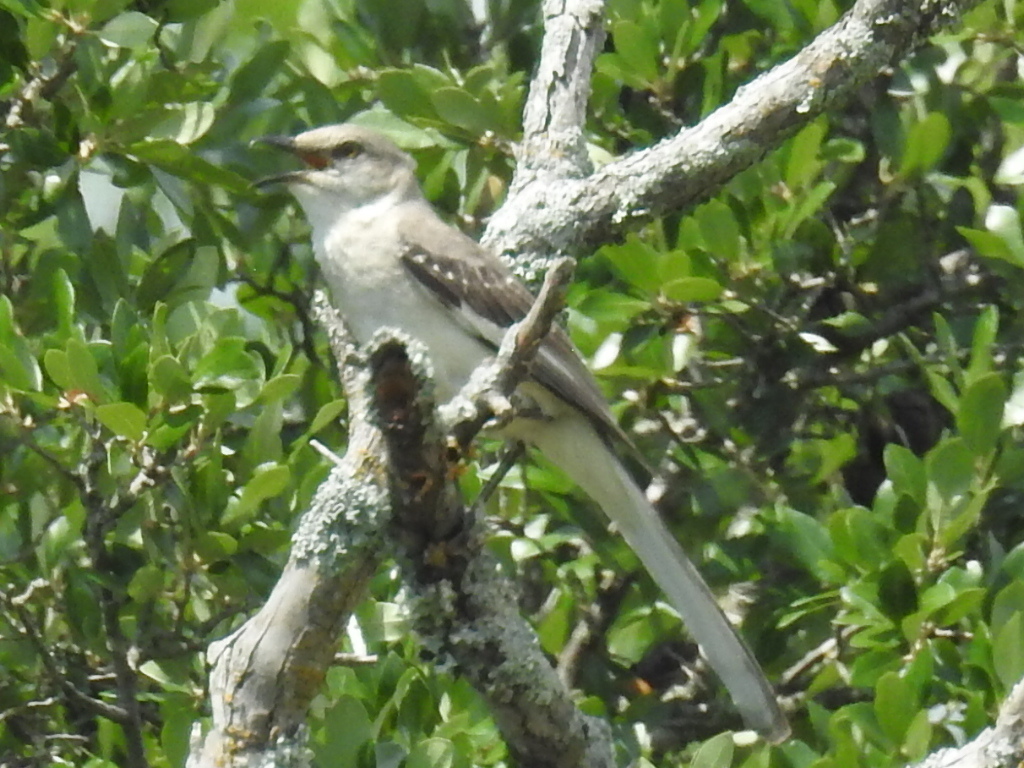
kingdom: Animalia
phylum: Chordata
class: Aves
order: Passeriformes
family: Mimidae
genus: Mimus
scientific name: Mimus polyglottos
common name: Northern mockingbird
